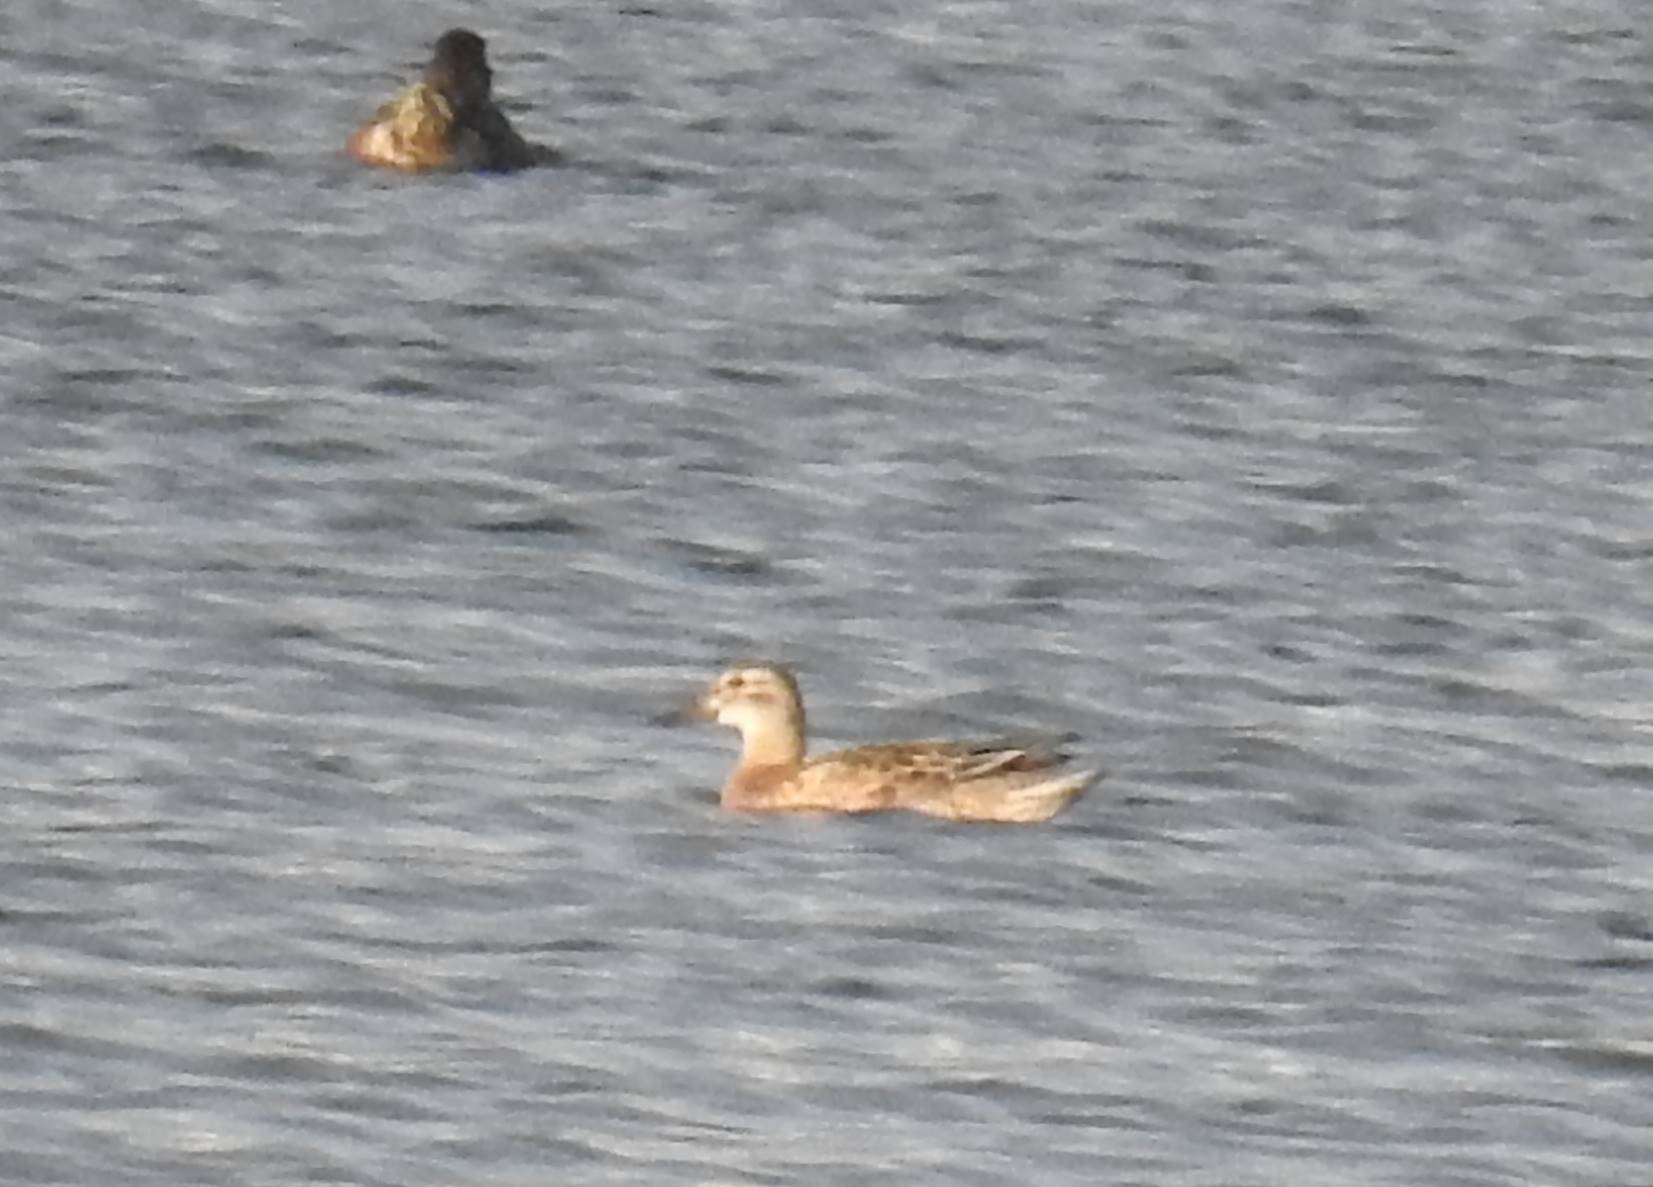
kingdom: Animalia
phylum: Chordata
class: Aves
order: Anseriformes
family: Anatidae
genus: Spatula
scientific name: Spatula querquedula
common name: Garganey
